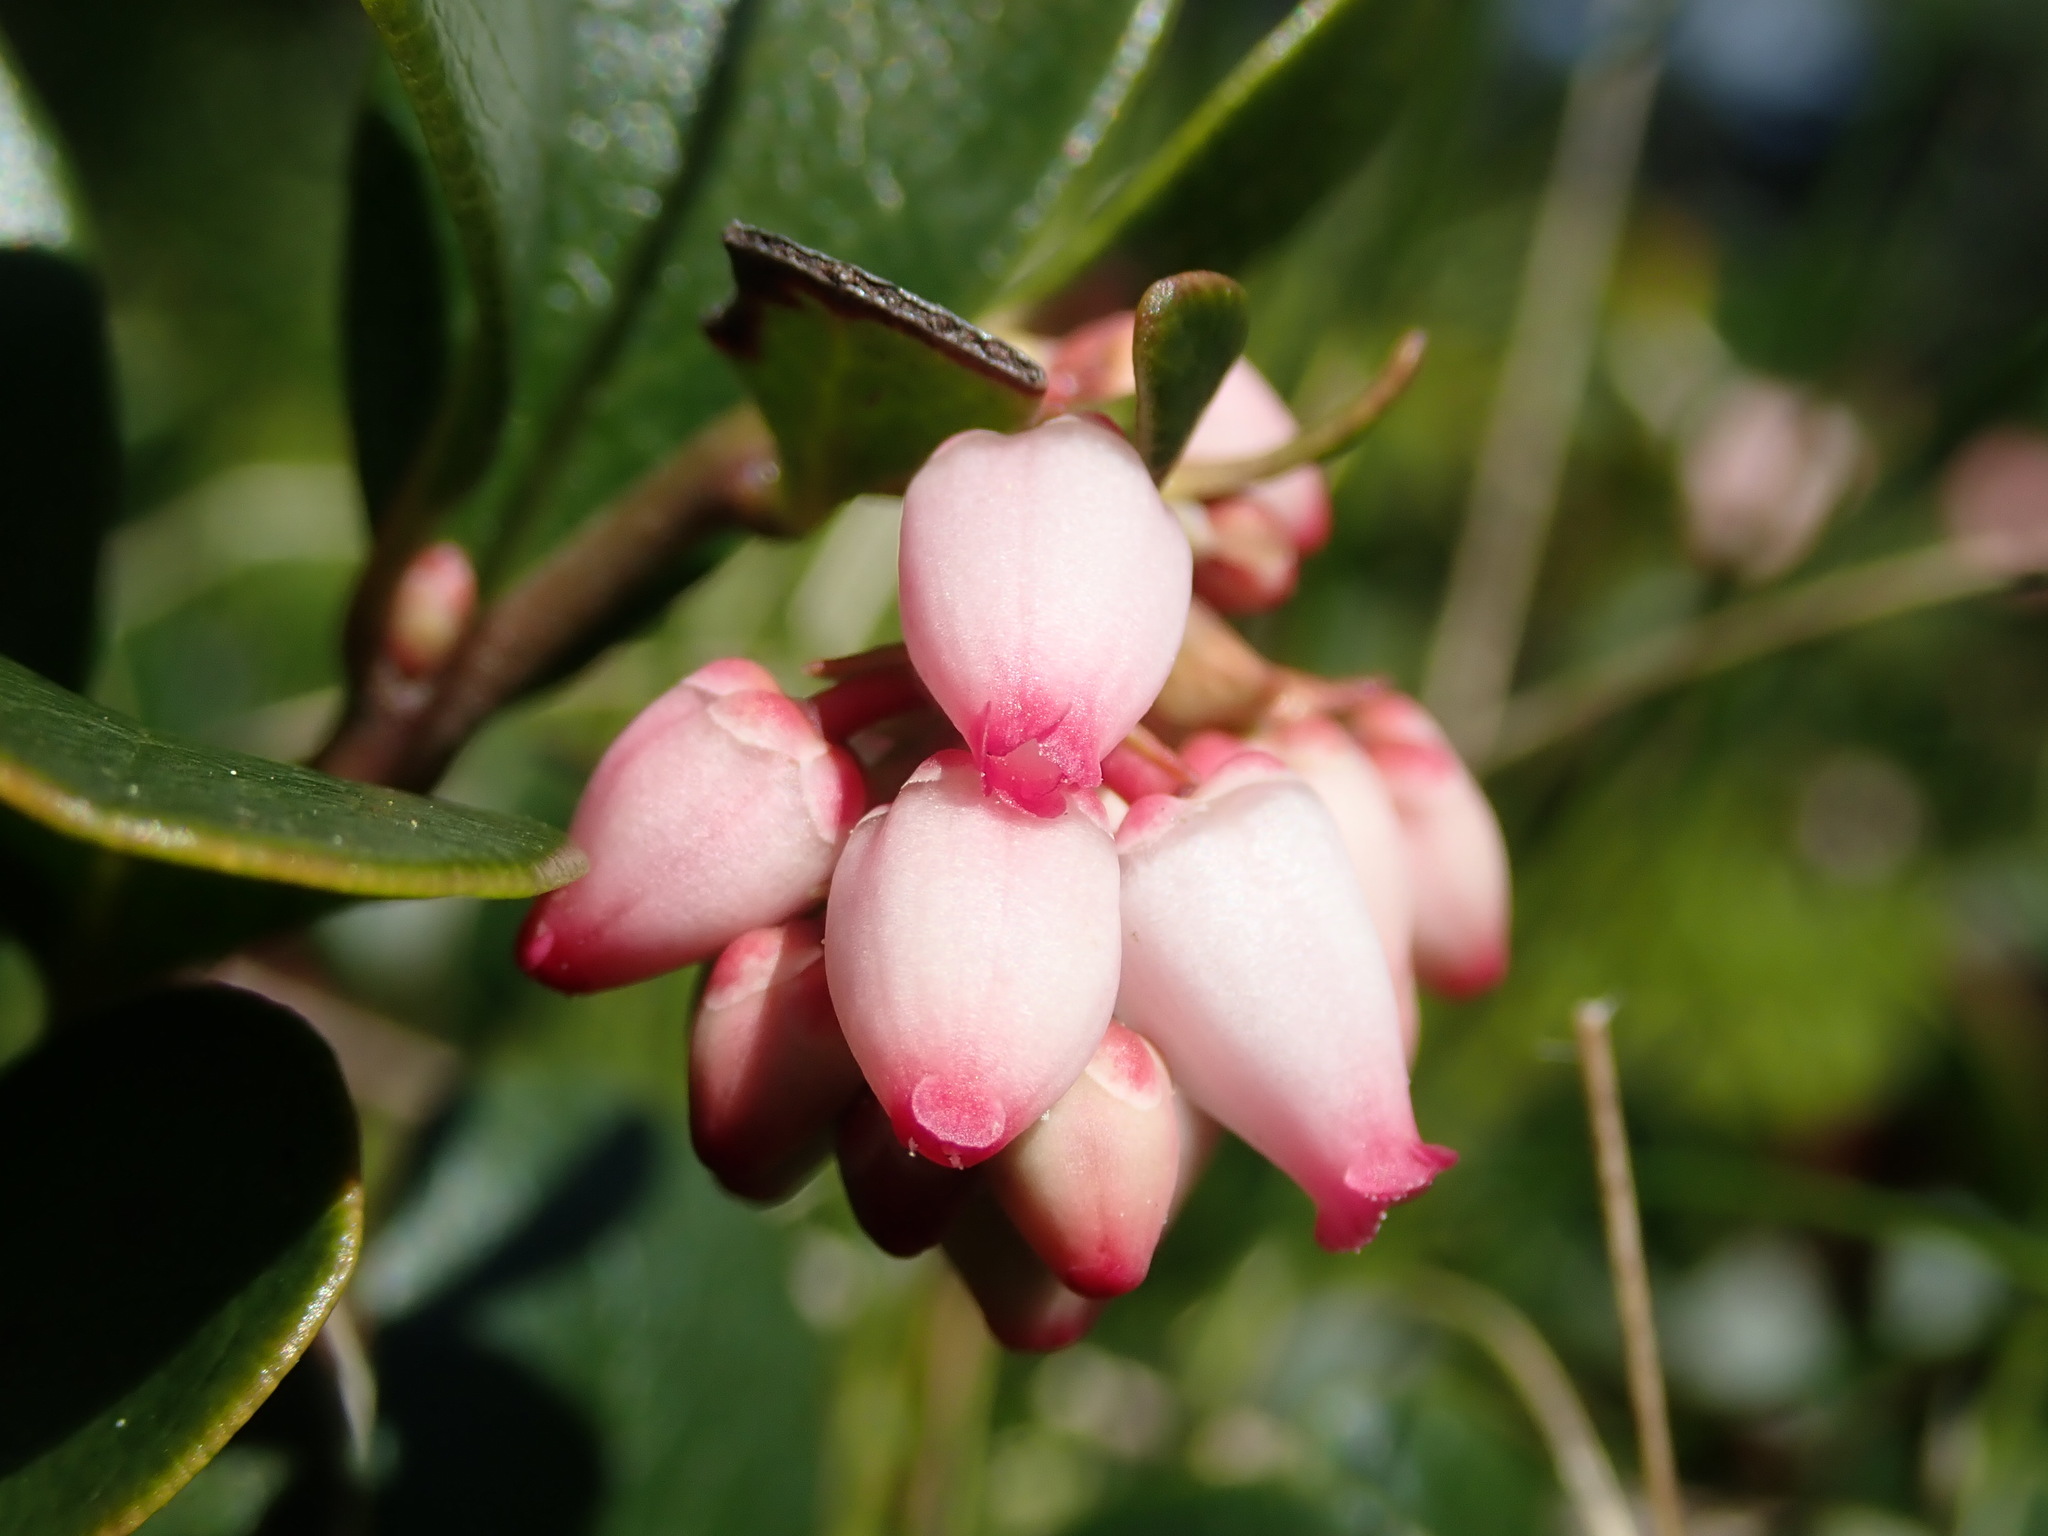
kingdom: Plantae
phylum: Tracheophyta
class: Magnoliopsida
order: Ericales
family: Ericaceae
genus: Arctostaphylos
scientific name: Arctostaphylos uva-ursi
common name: Bearberry
